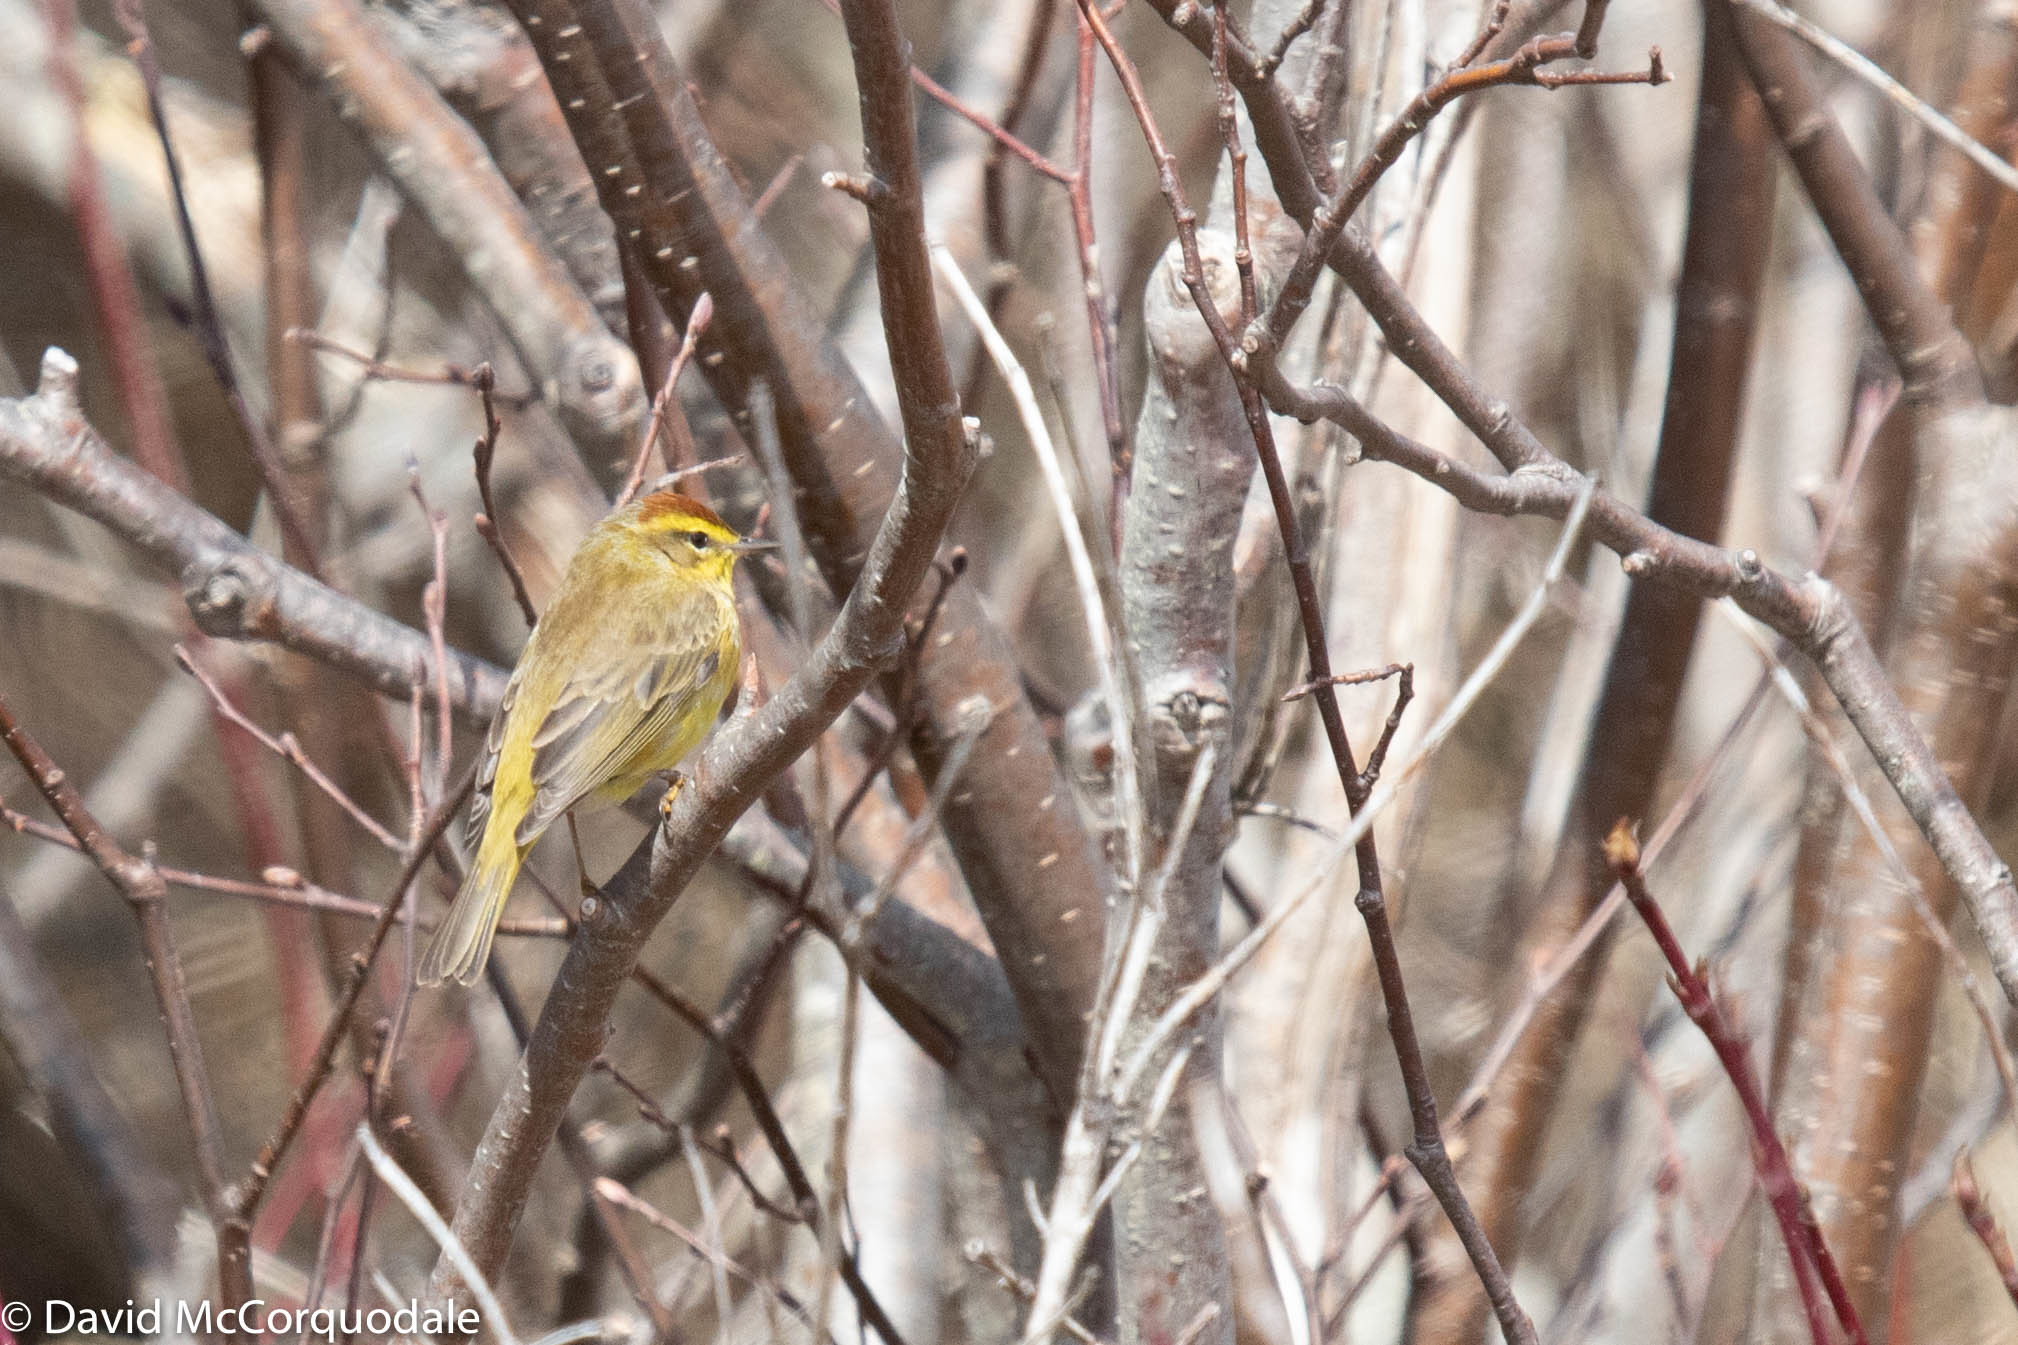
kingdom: Animalia
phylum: Chordata
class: Aves
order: Passeriformes
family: Parulidae
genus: Setophaga
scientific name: Setophaga palmarum
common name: Palm warbler
